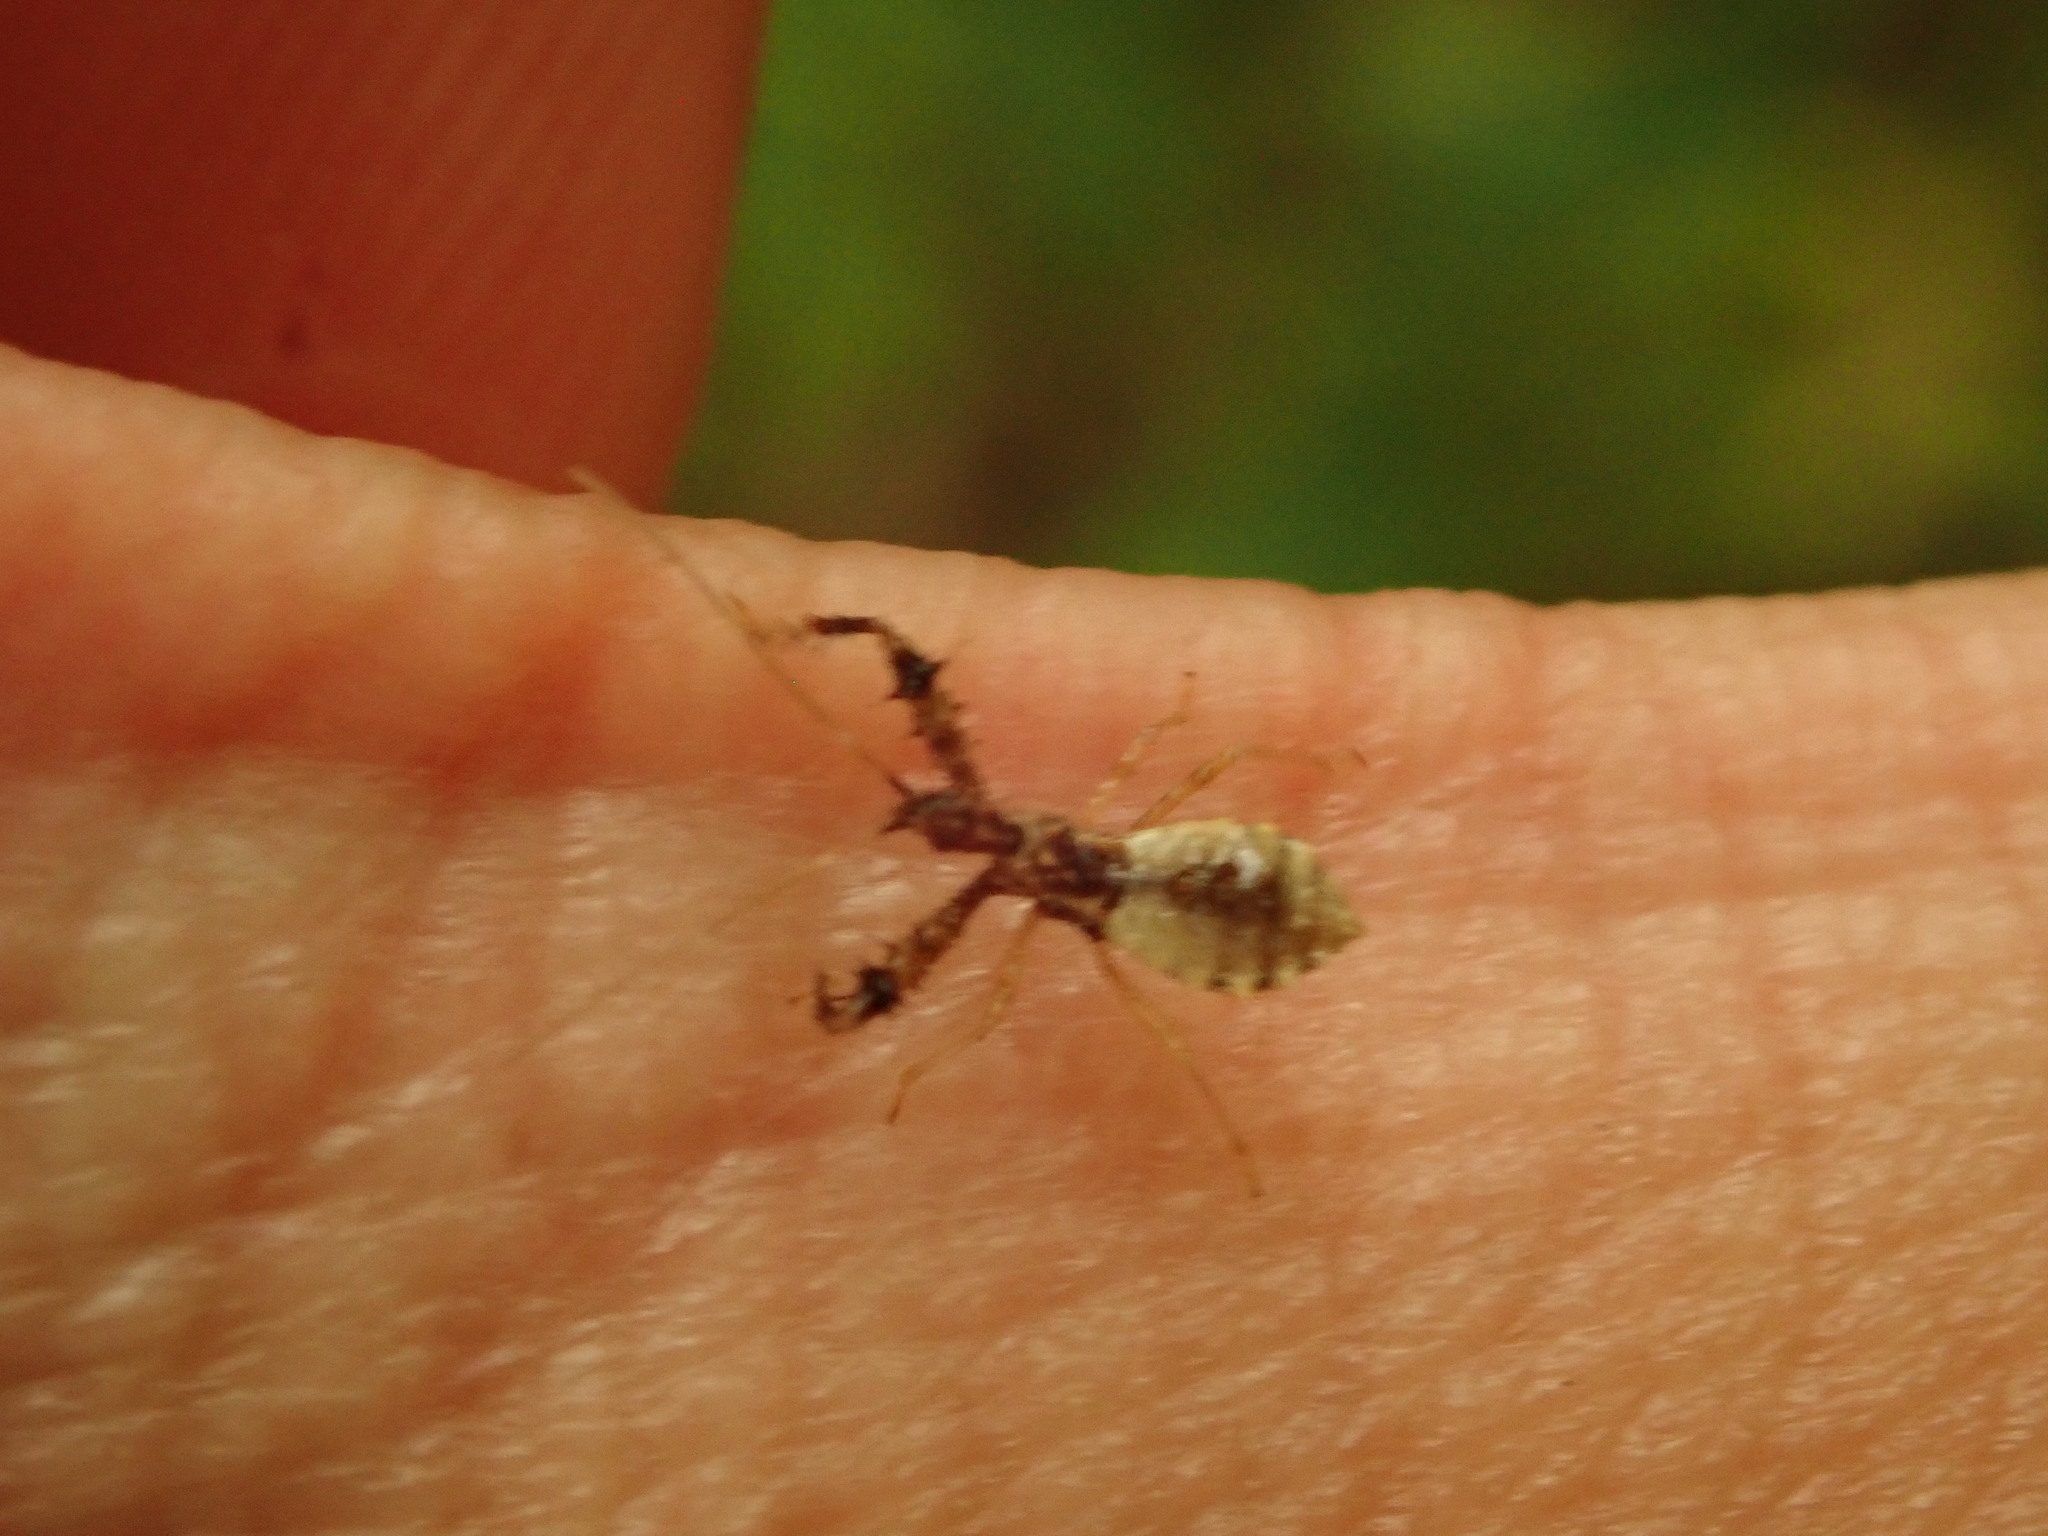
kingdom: Animalia
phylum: Arthropoda
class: Insecta
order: Hemiptera
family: Reduviidae
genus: Sinea
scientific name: Sinea spinipes
